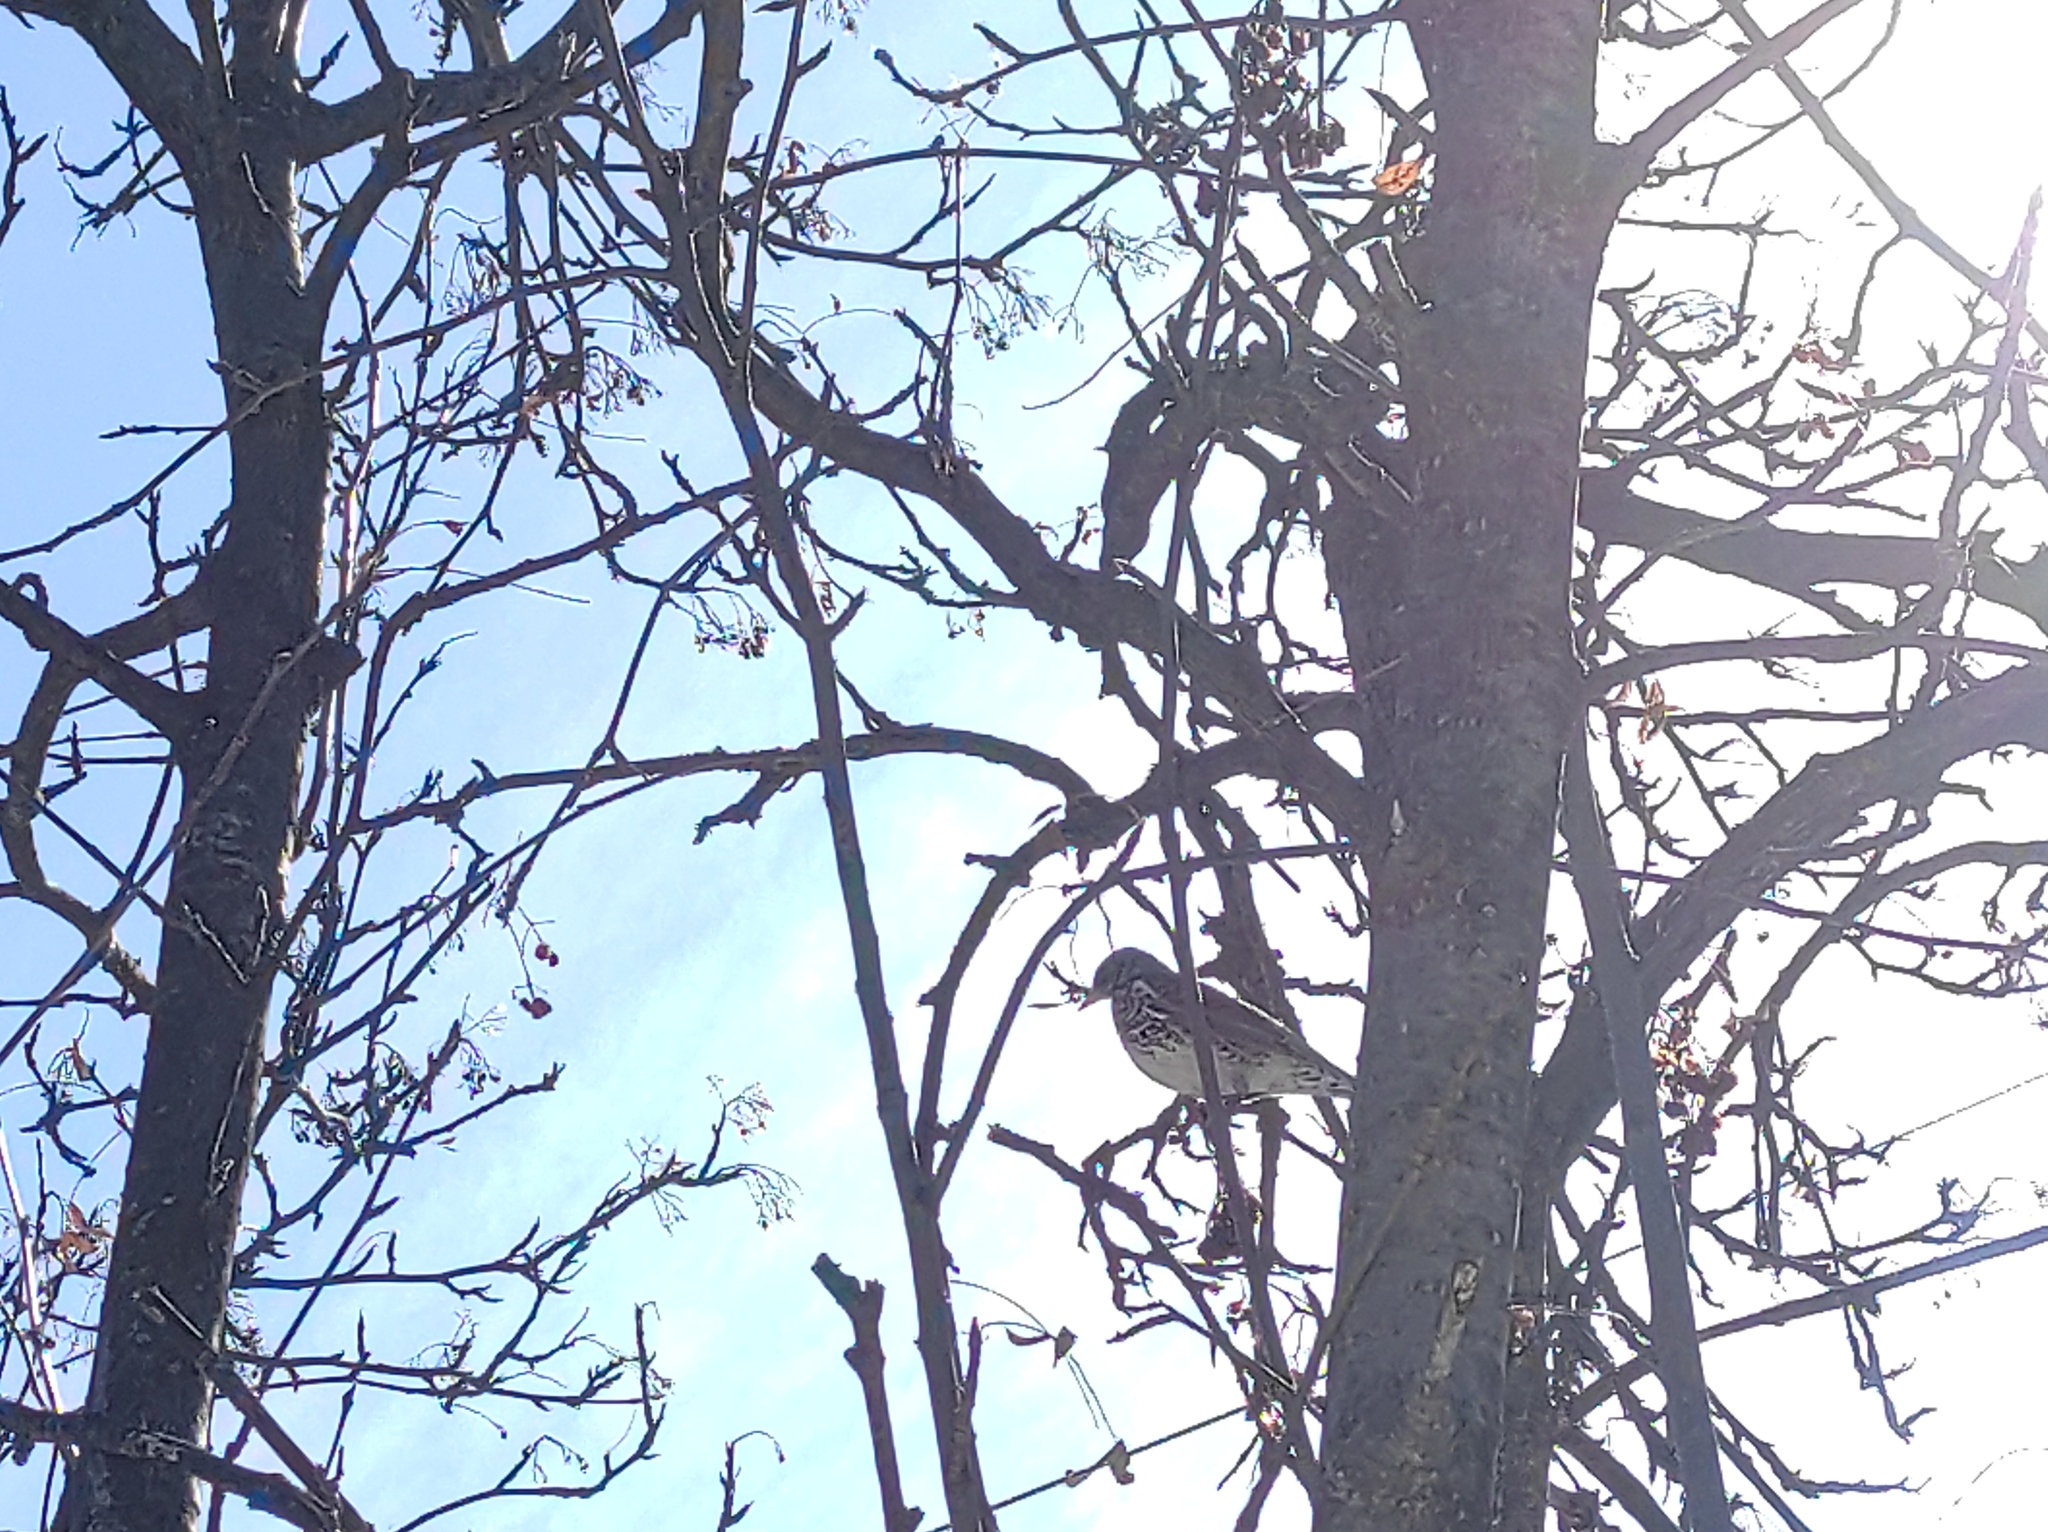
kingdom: Animalia
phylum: Chordata
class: Aves
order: Passeriformes
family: Turdidae
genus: Turdus
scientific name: Turdus pilaris
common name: Fieldfare
